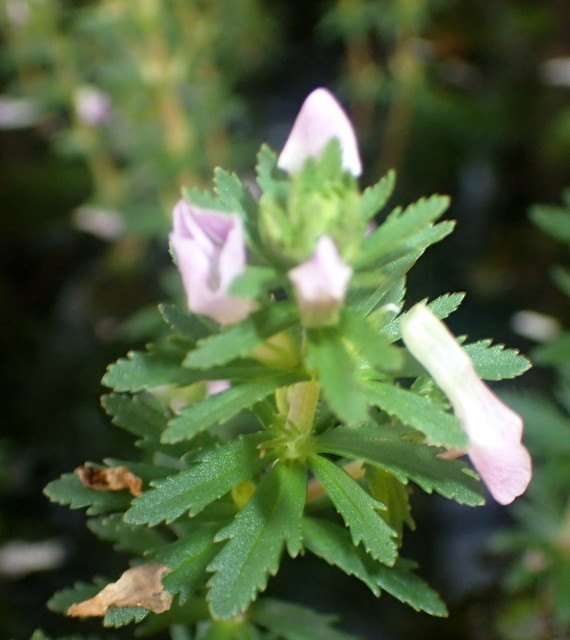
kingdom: Plantae
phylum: Tracheophyta
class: Magnoliopsida
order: Lamiales
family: Plantaginaceae
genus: Limnophila
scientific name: Limnophila sessiliflora
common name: Asian marshweed
